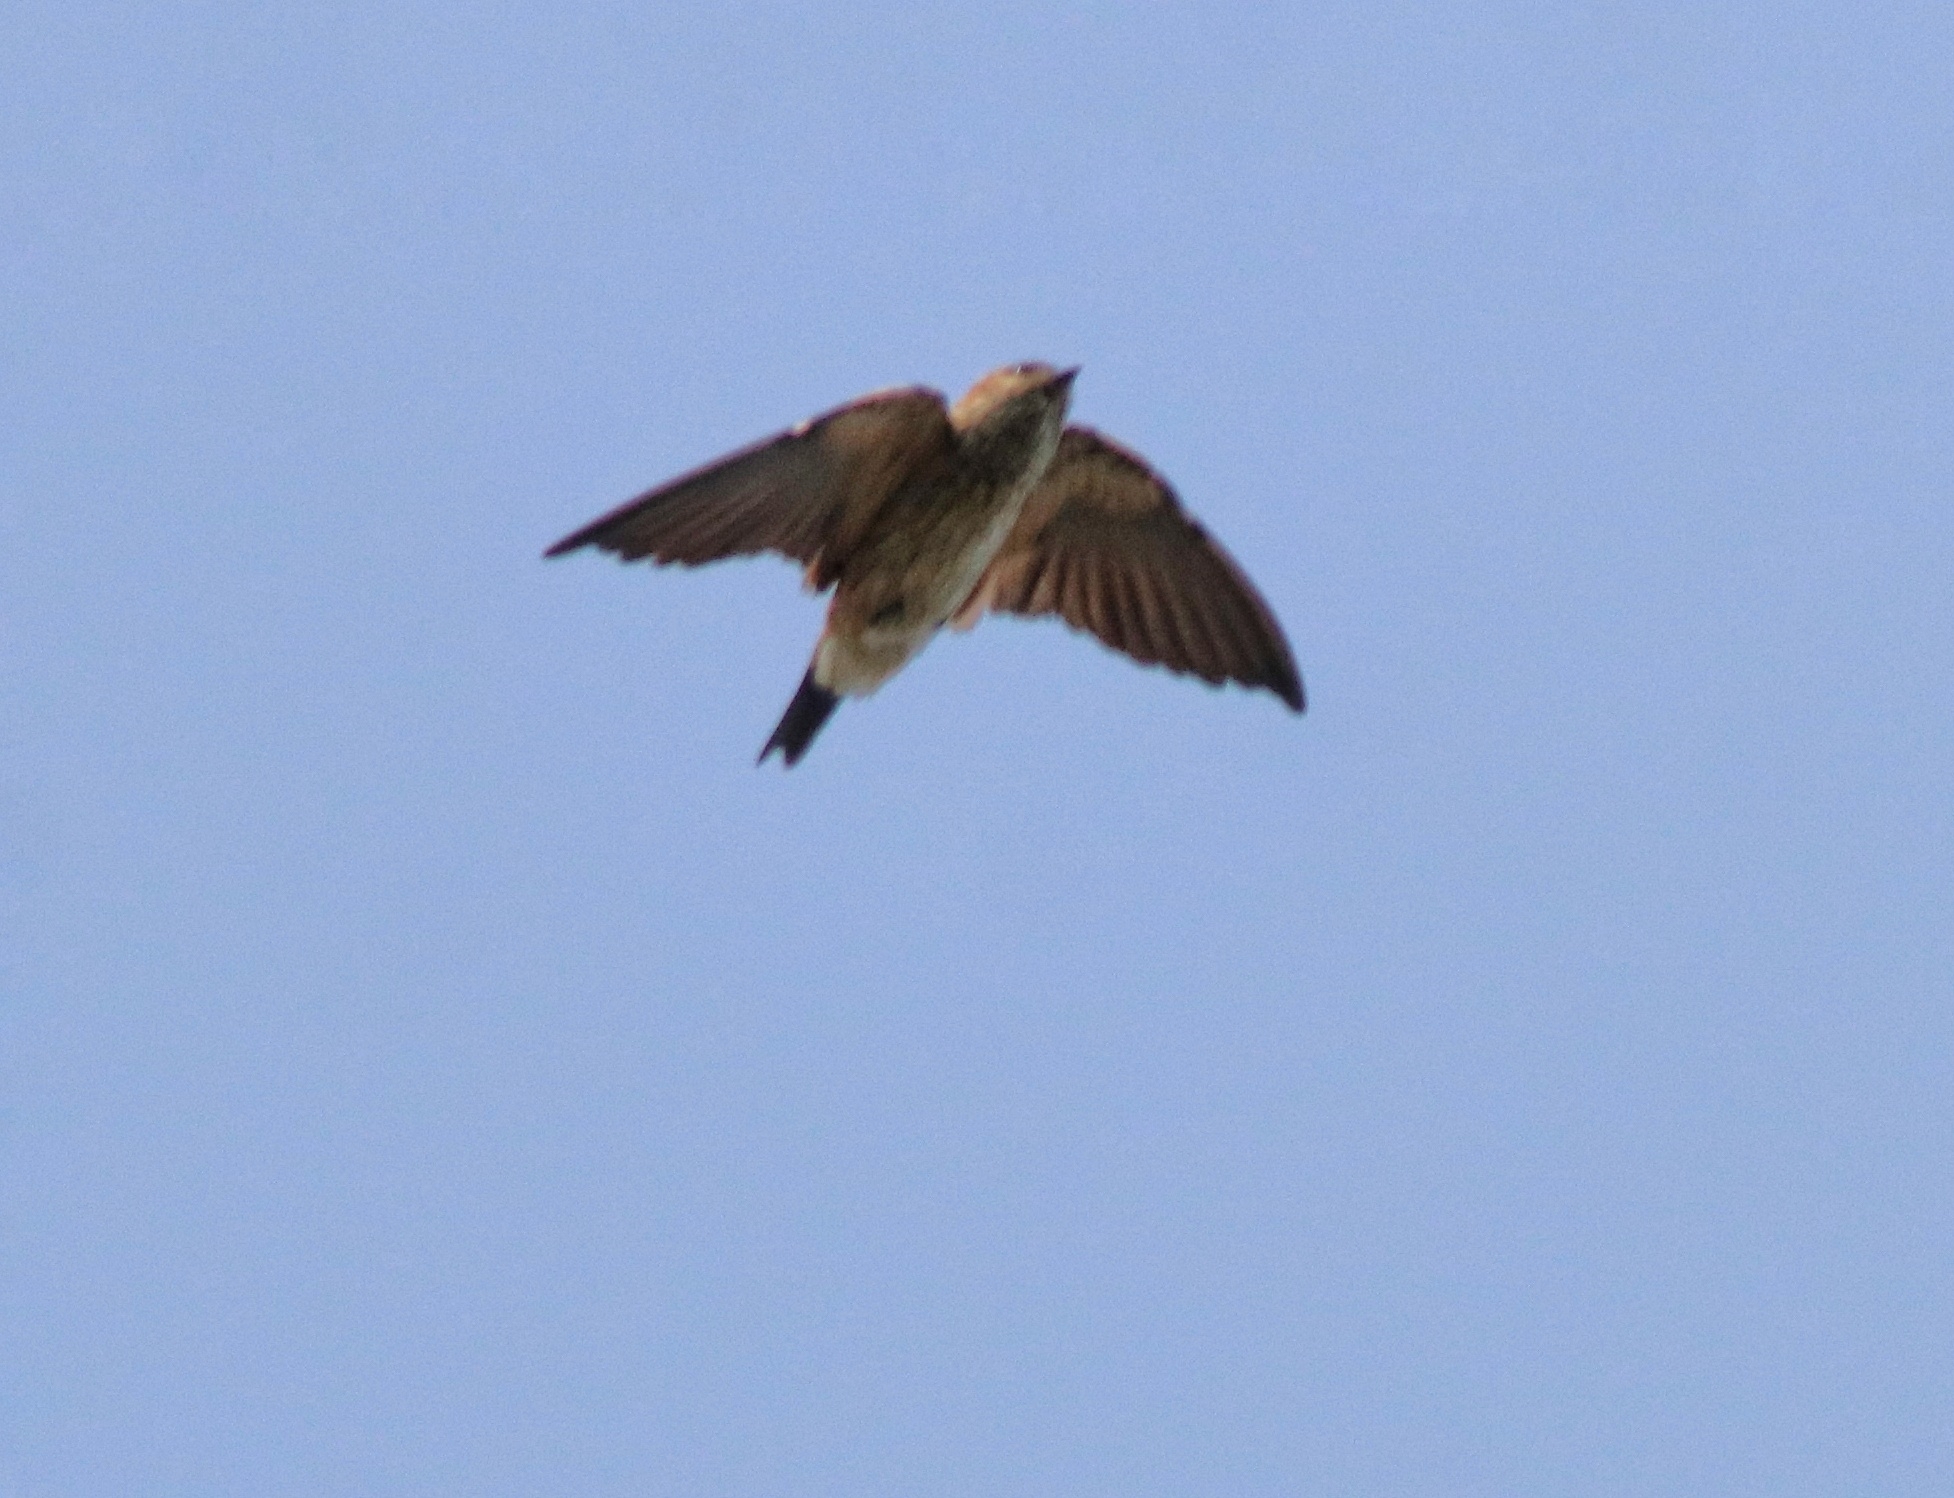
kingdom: Animalia
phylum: Chordata
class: Aves
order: Passeriformes
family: Hirundinidae
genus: Cecropis
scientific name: Cecropis daurica
